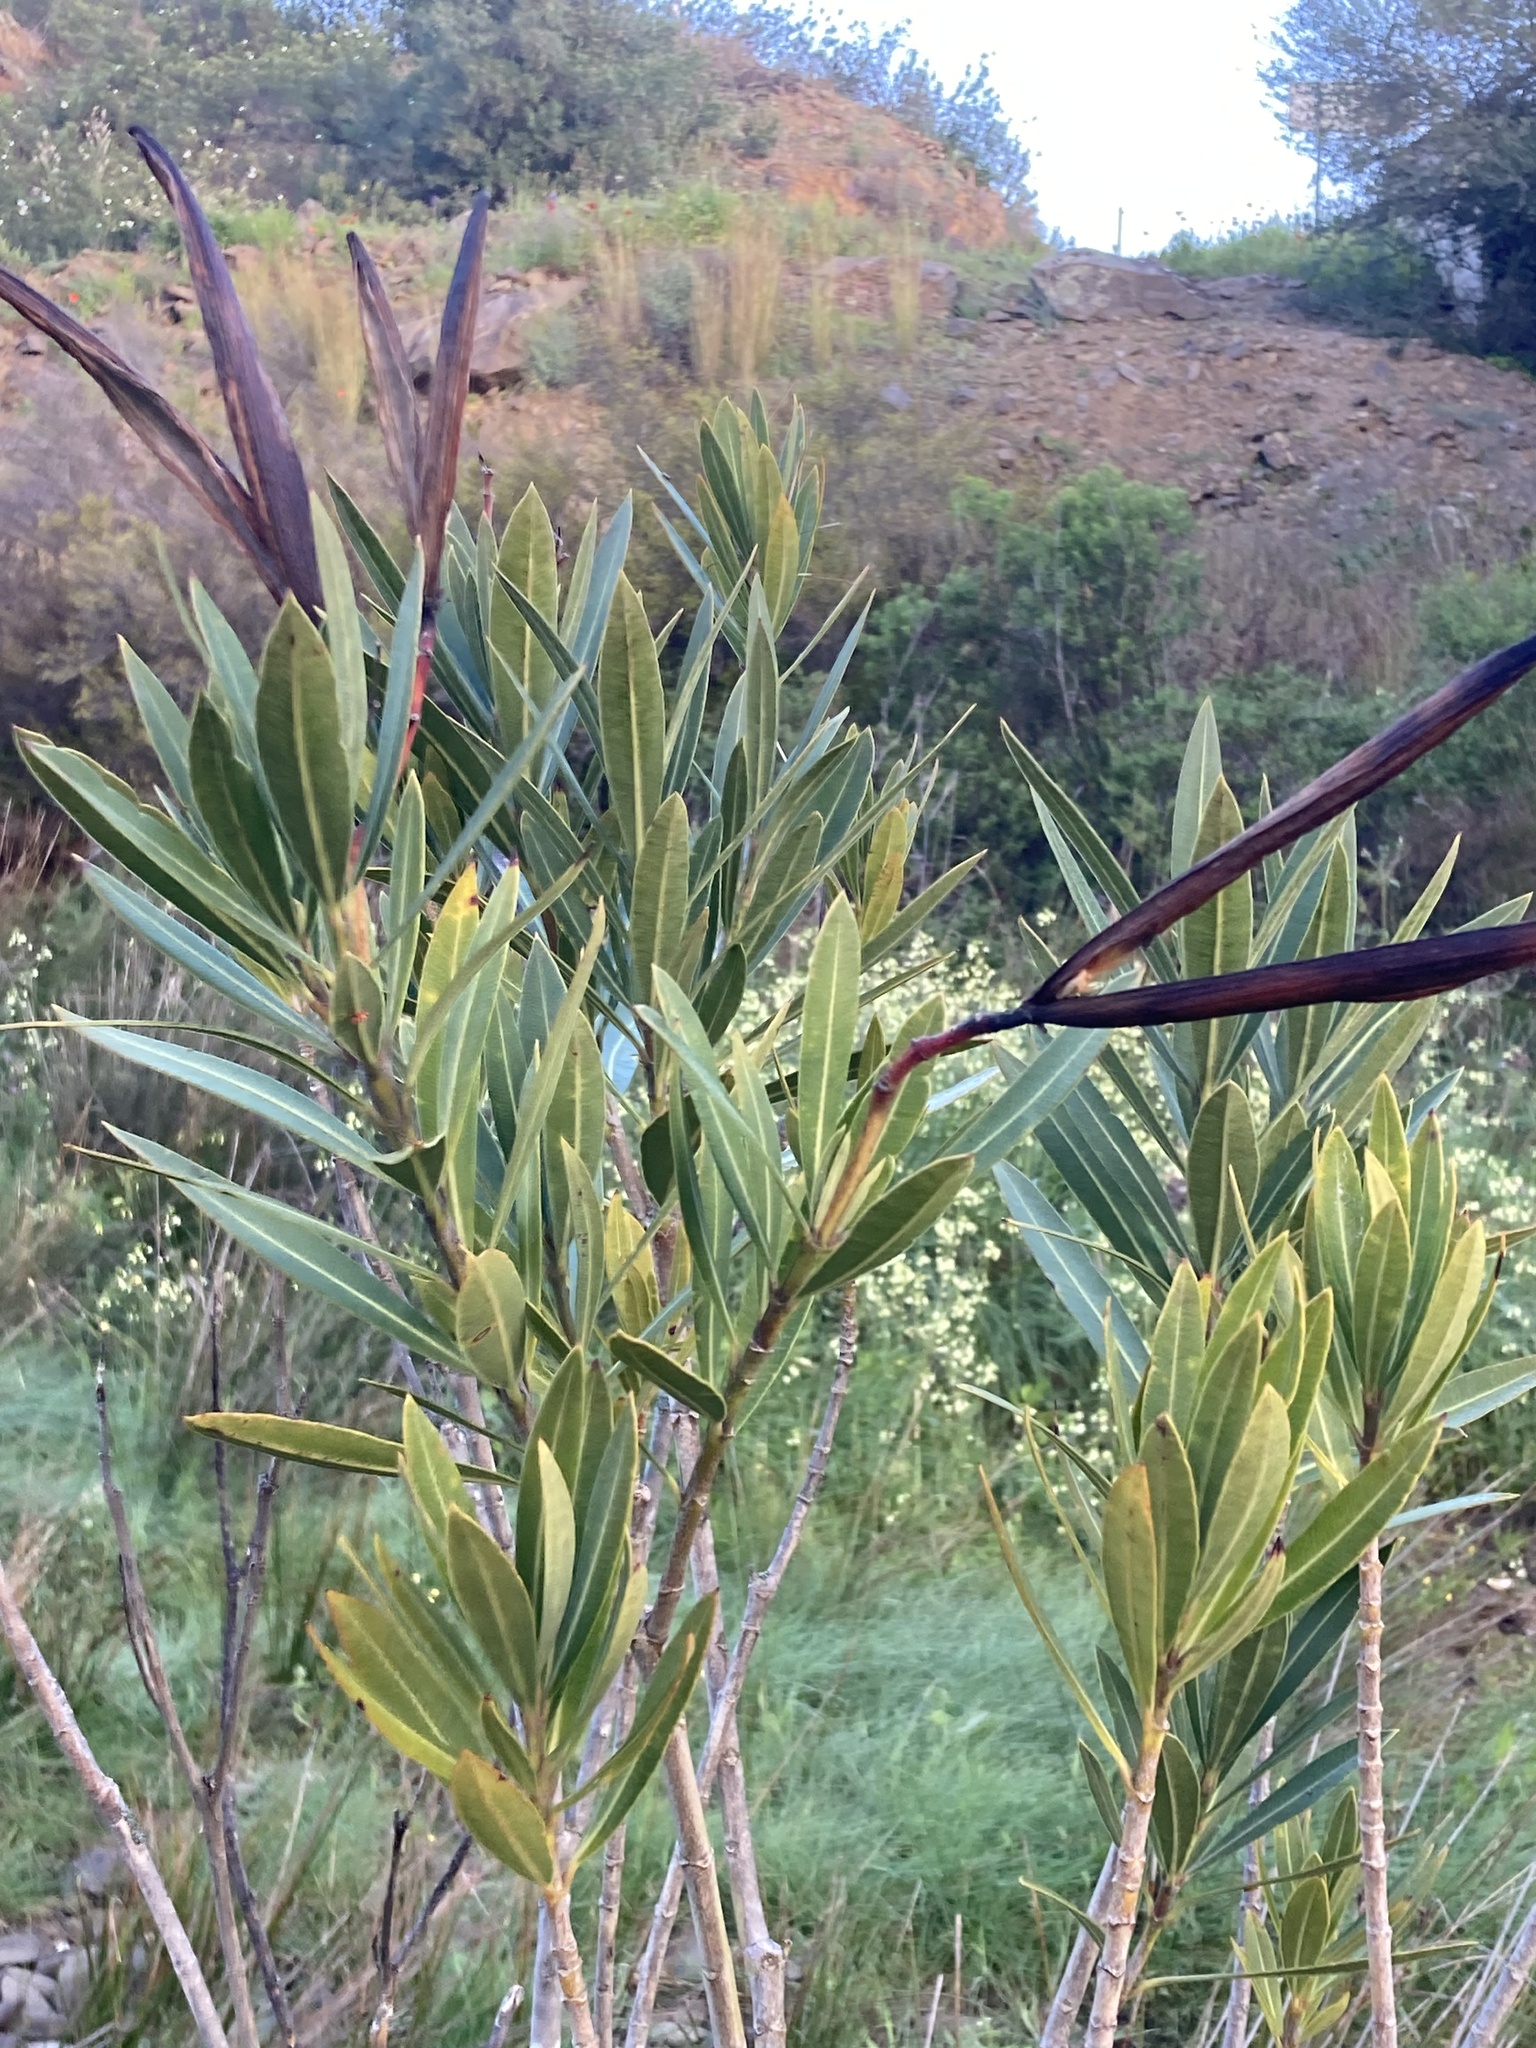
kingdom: Plantae
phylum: Tracheophyta
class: Magnoliopsida
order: Gentianales
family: Apocynaceae
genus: Nerium
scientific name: Nerium oleander
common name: Oleander
